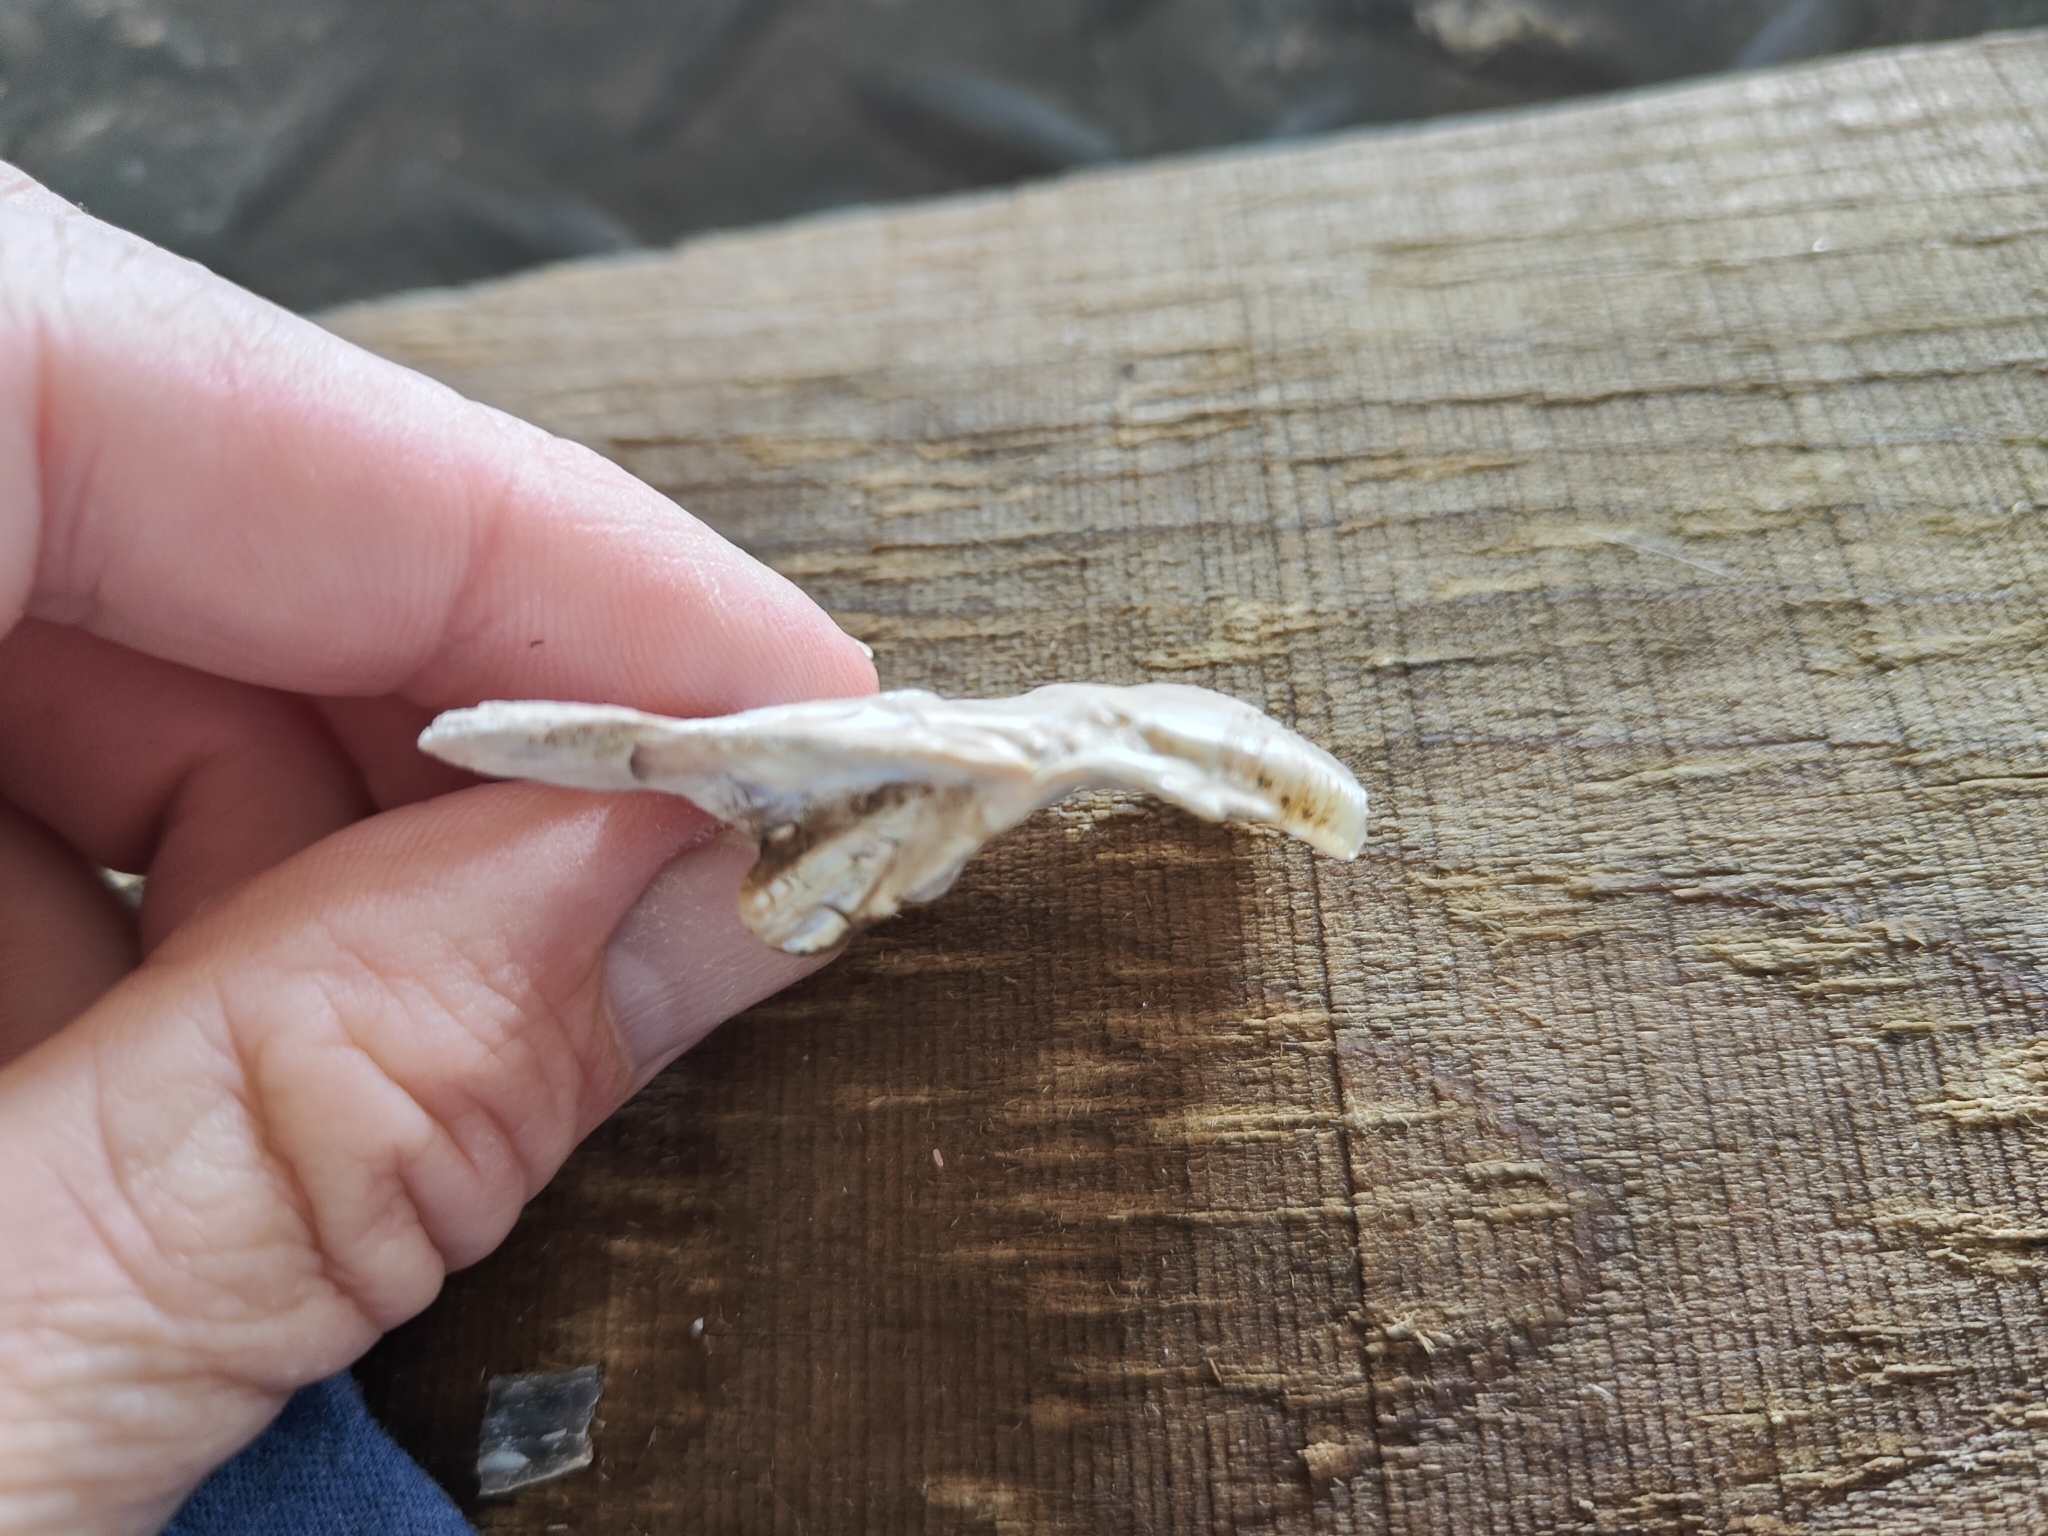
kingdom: Animalia
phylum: Mollusca
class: Bivalvia
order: Unionida
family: Unionidae
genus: Lasmigona
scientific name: Lasmigona complanata
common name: White heelsplitter
